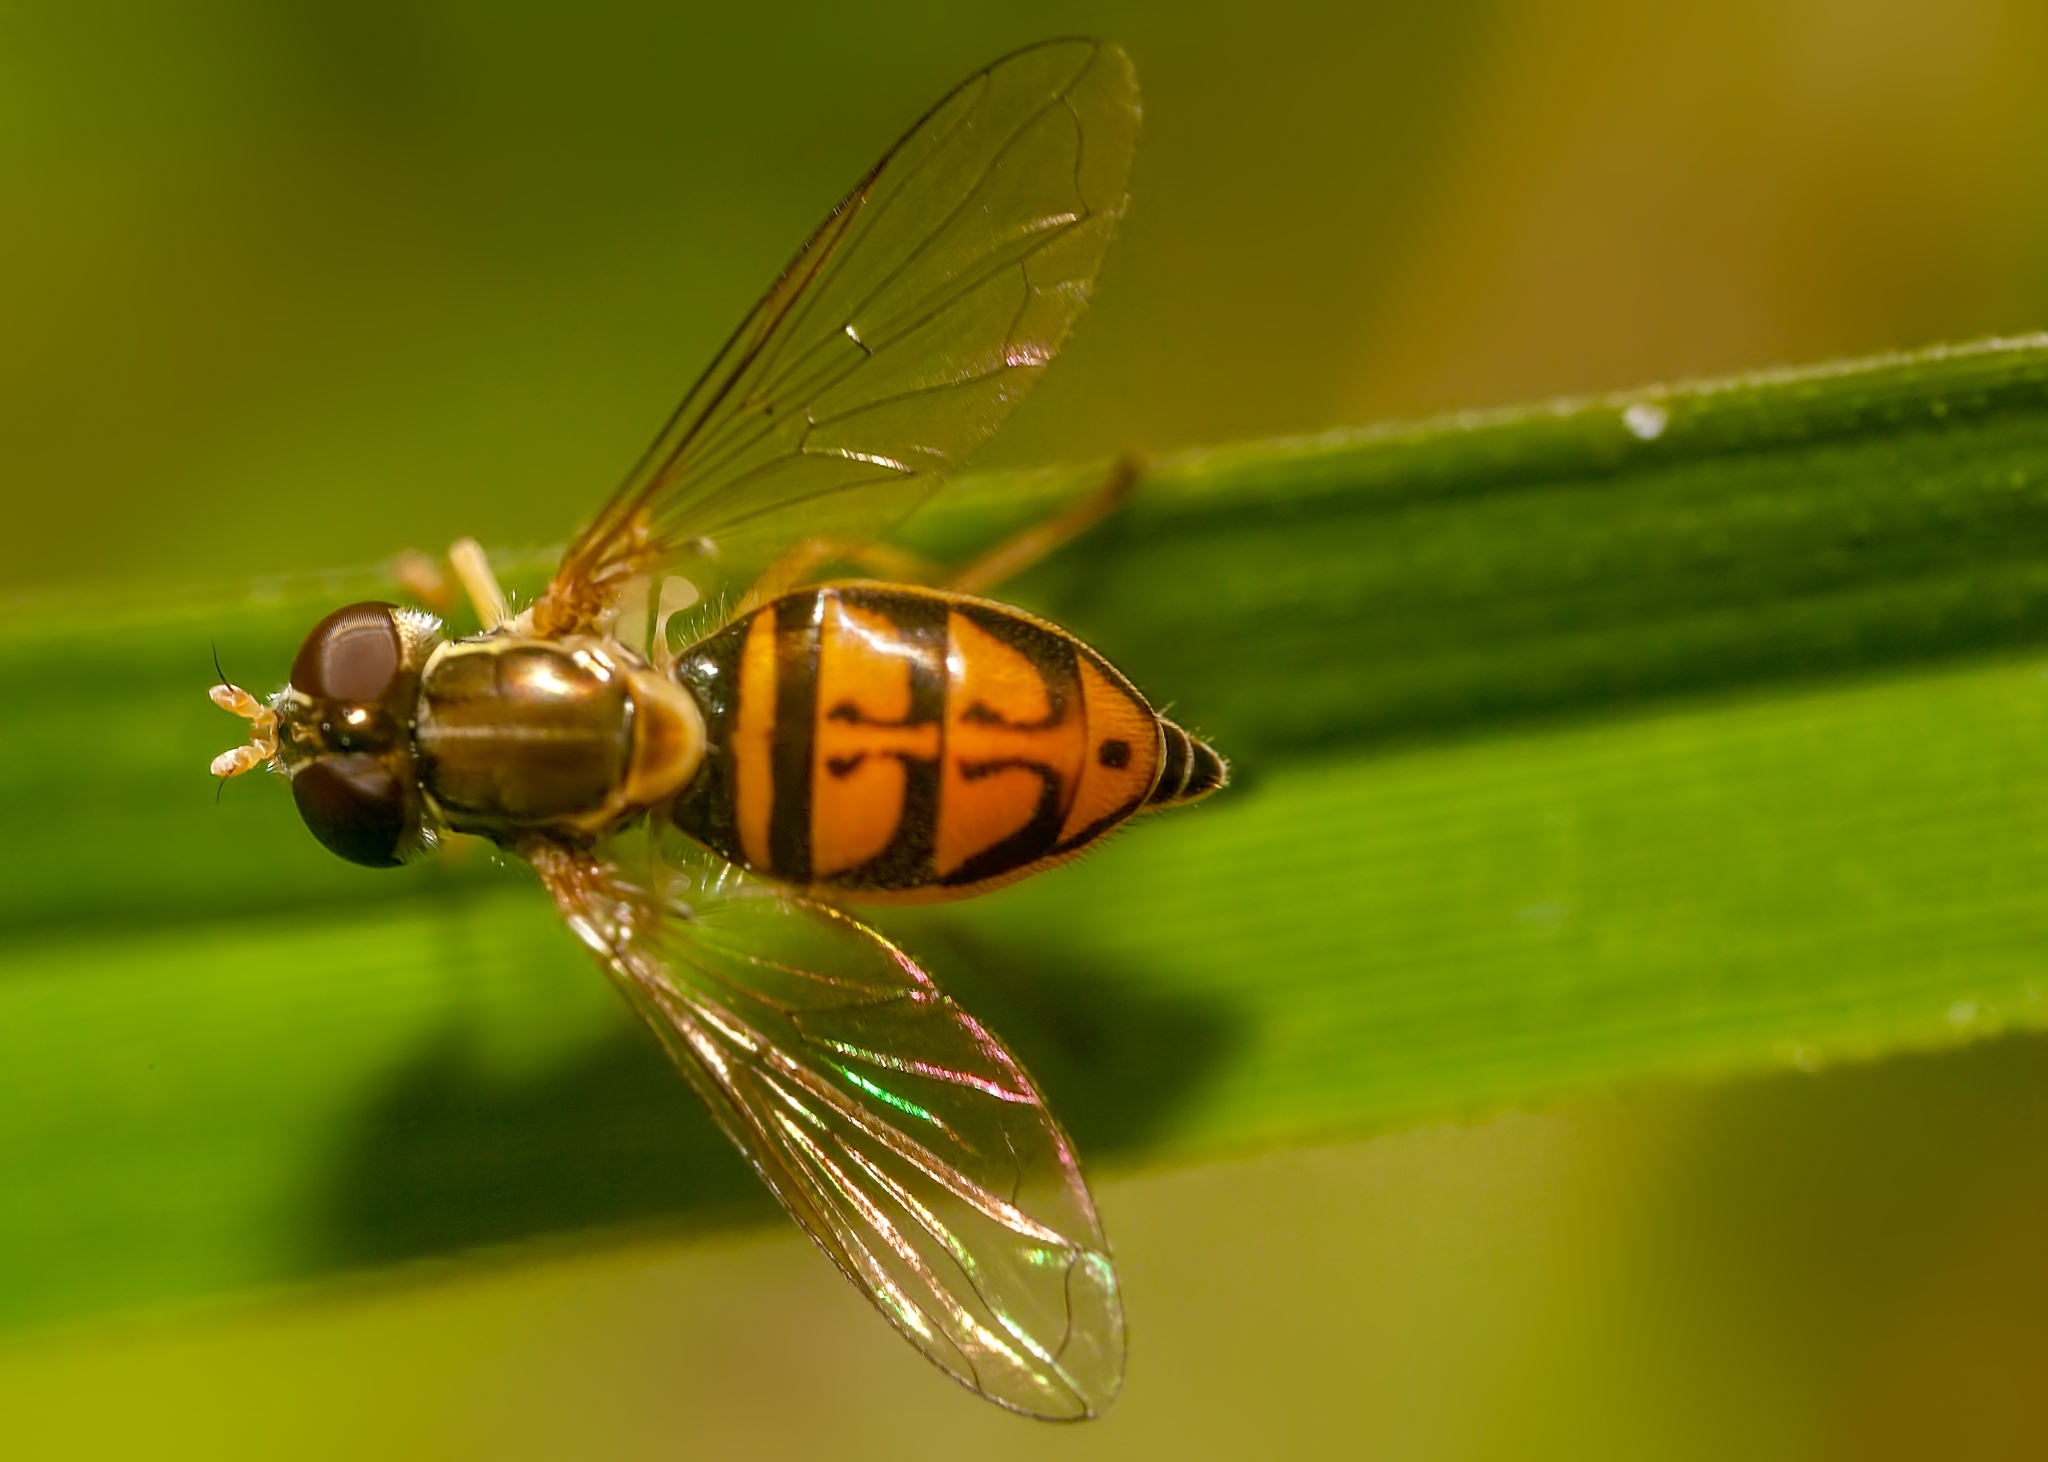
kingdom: Animalia
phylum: Arthropoda
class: Insecta
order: Diptera
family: Syrphidae
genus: Toxomerus
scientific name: Toxomerus marginatus
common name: Syrphid fly
